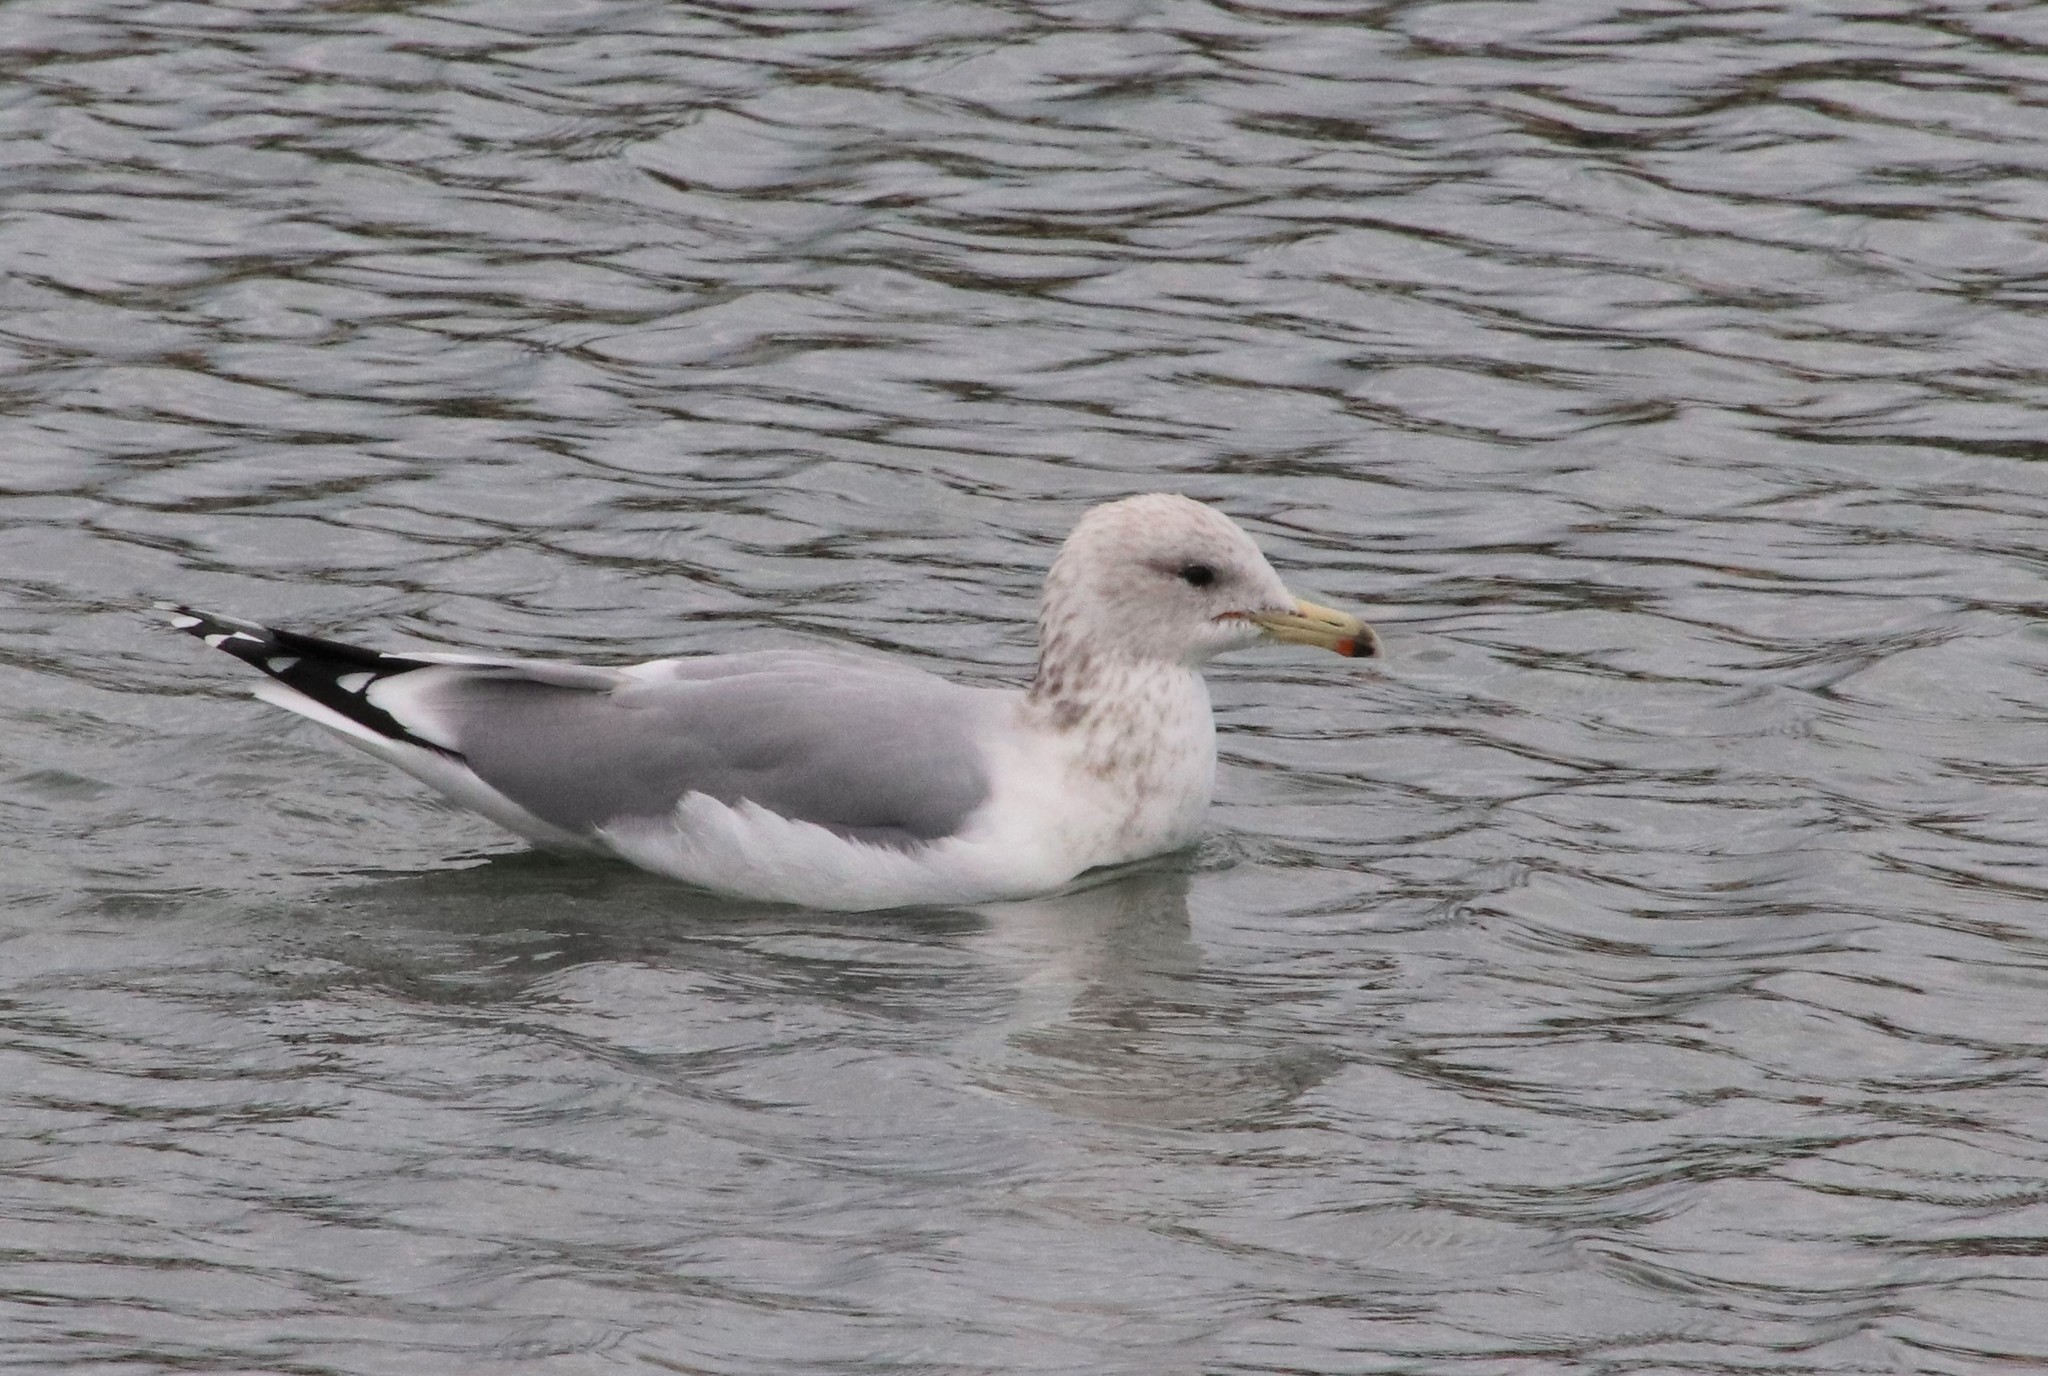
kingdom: Animalia
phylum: Chordata
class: Aves
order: Charadriiformes
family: Laridae
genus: Larus
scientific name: Larus californicus
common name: California gull
